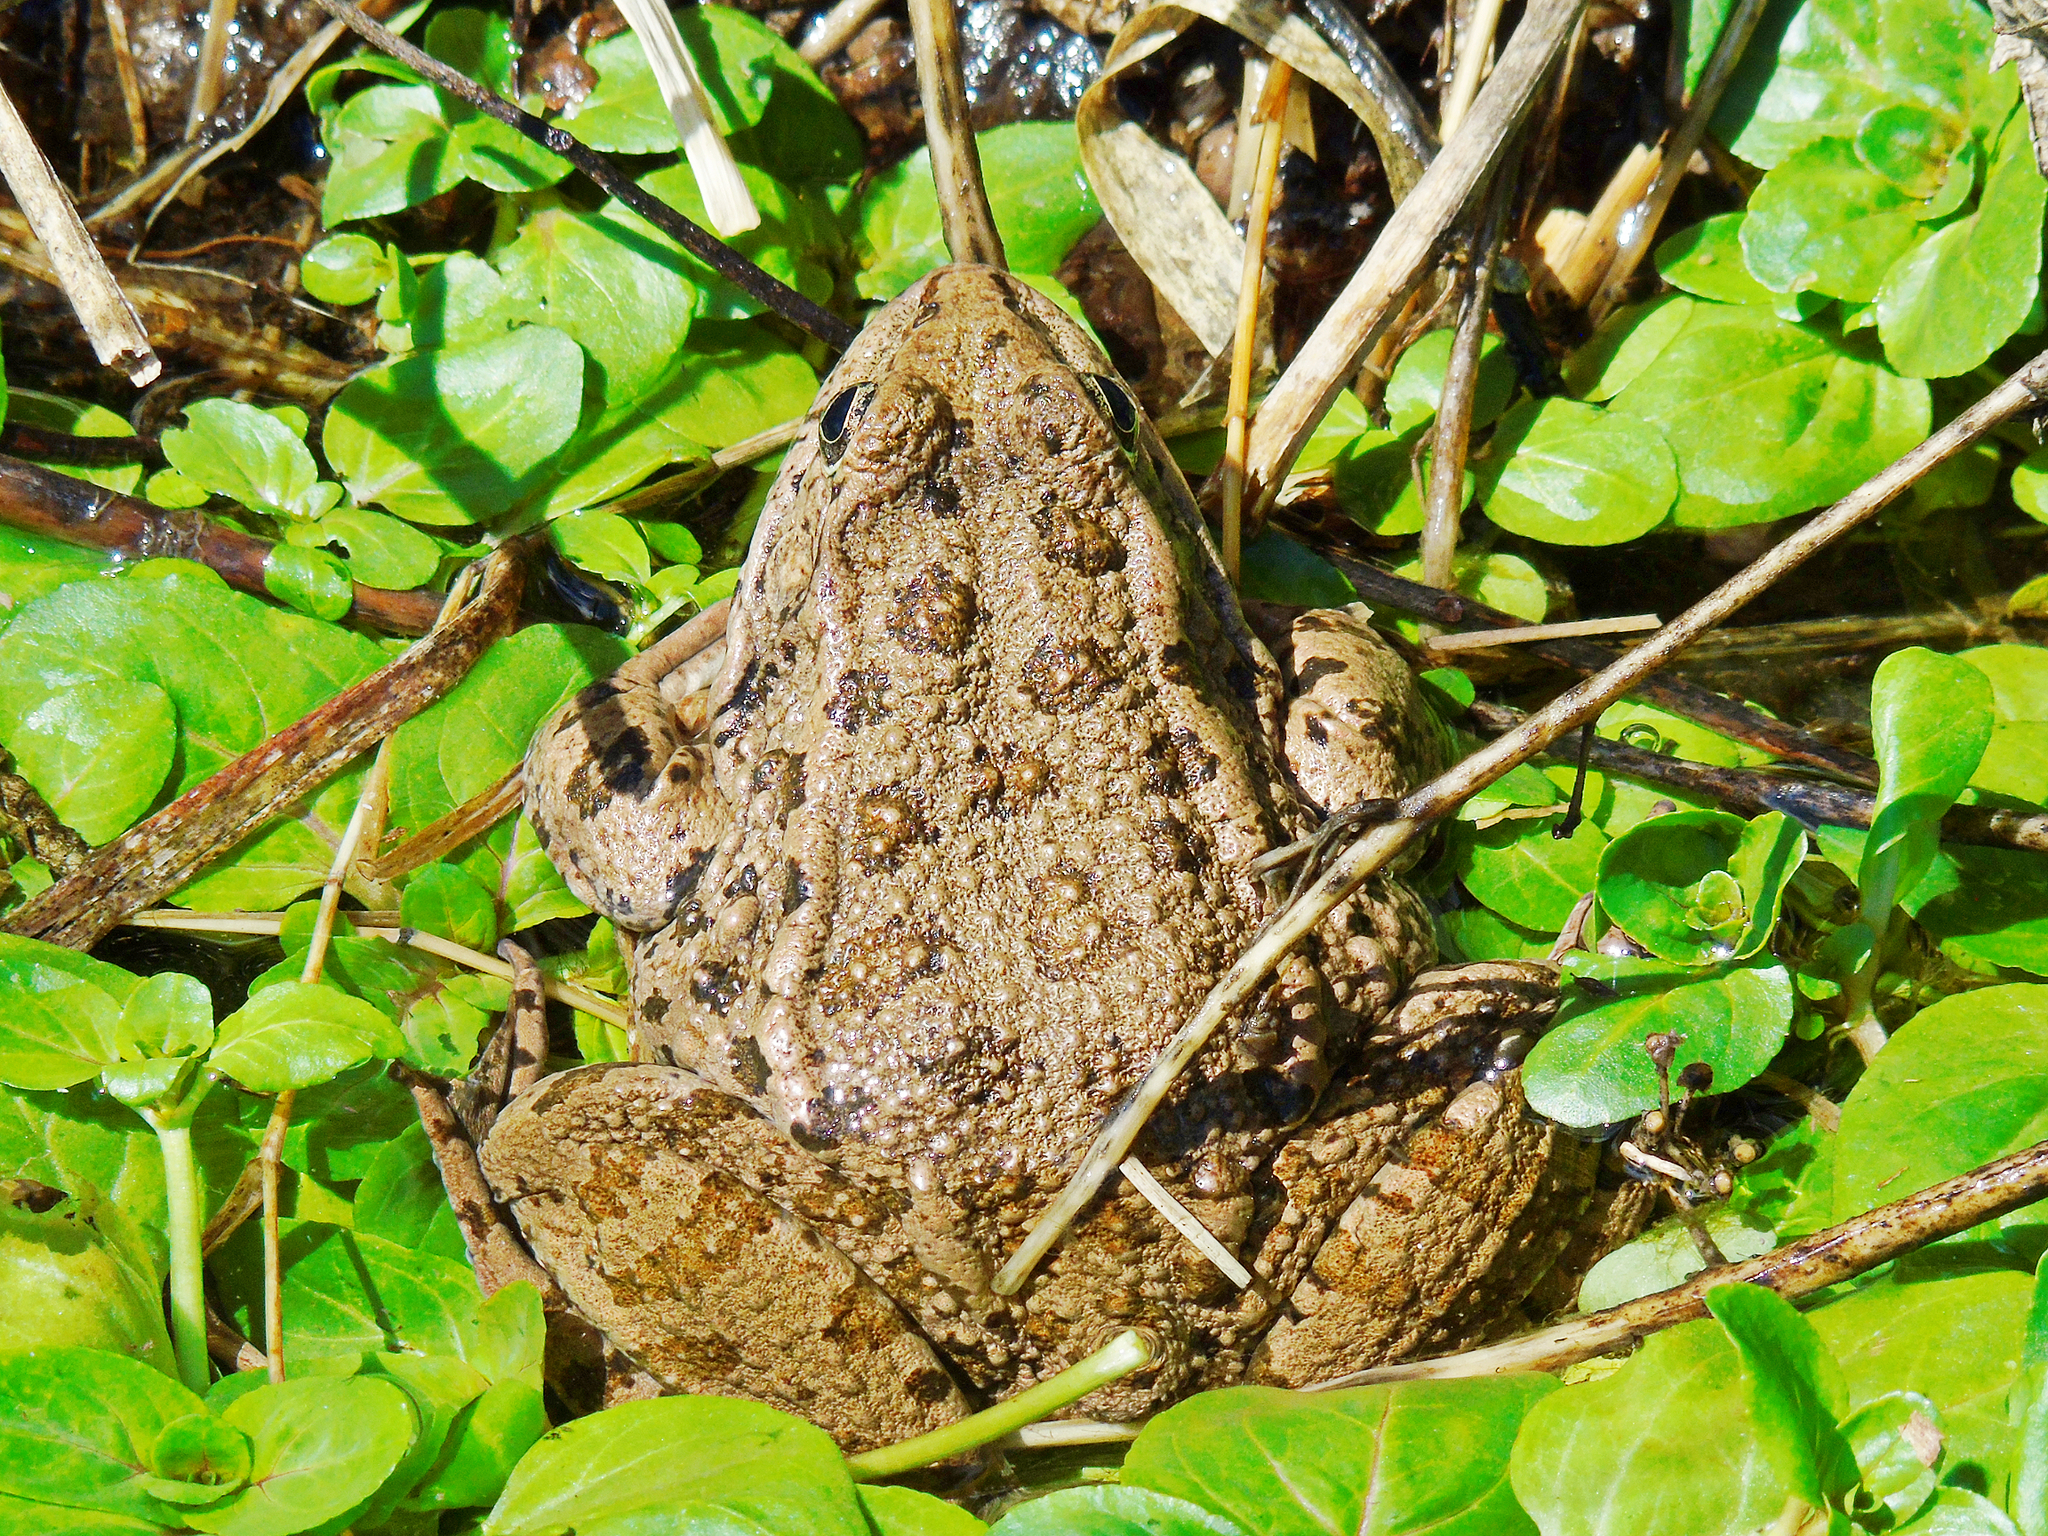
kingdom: Animalia
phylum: Chordata
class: Amphibia
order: Anura
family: Ranidae
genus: Pelophylax
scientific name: Pelophylax ridibundus
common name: Marsh frog
